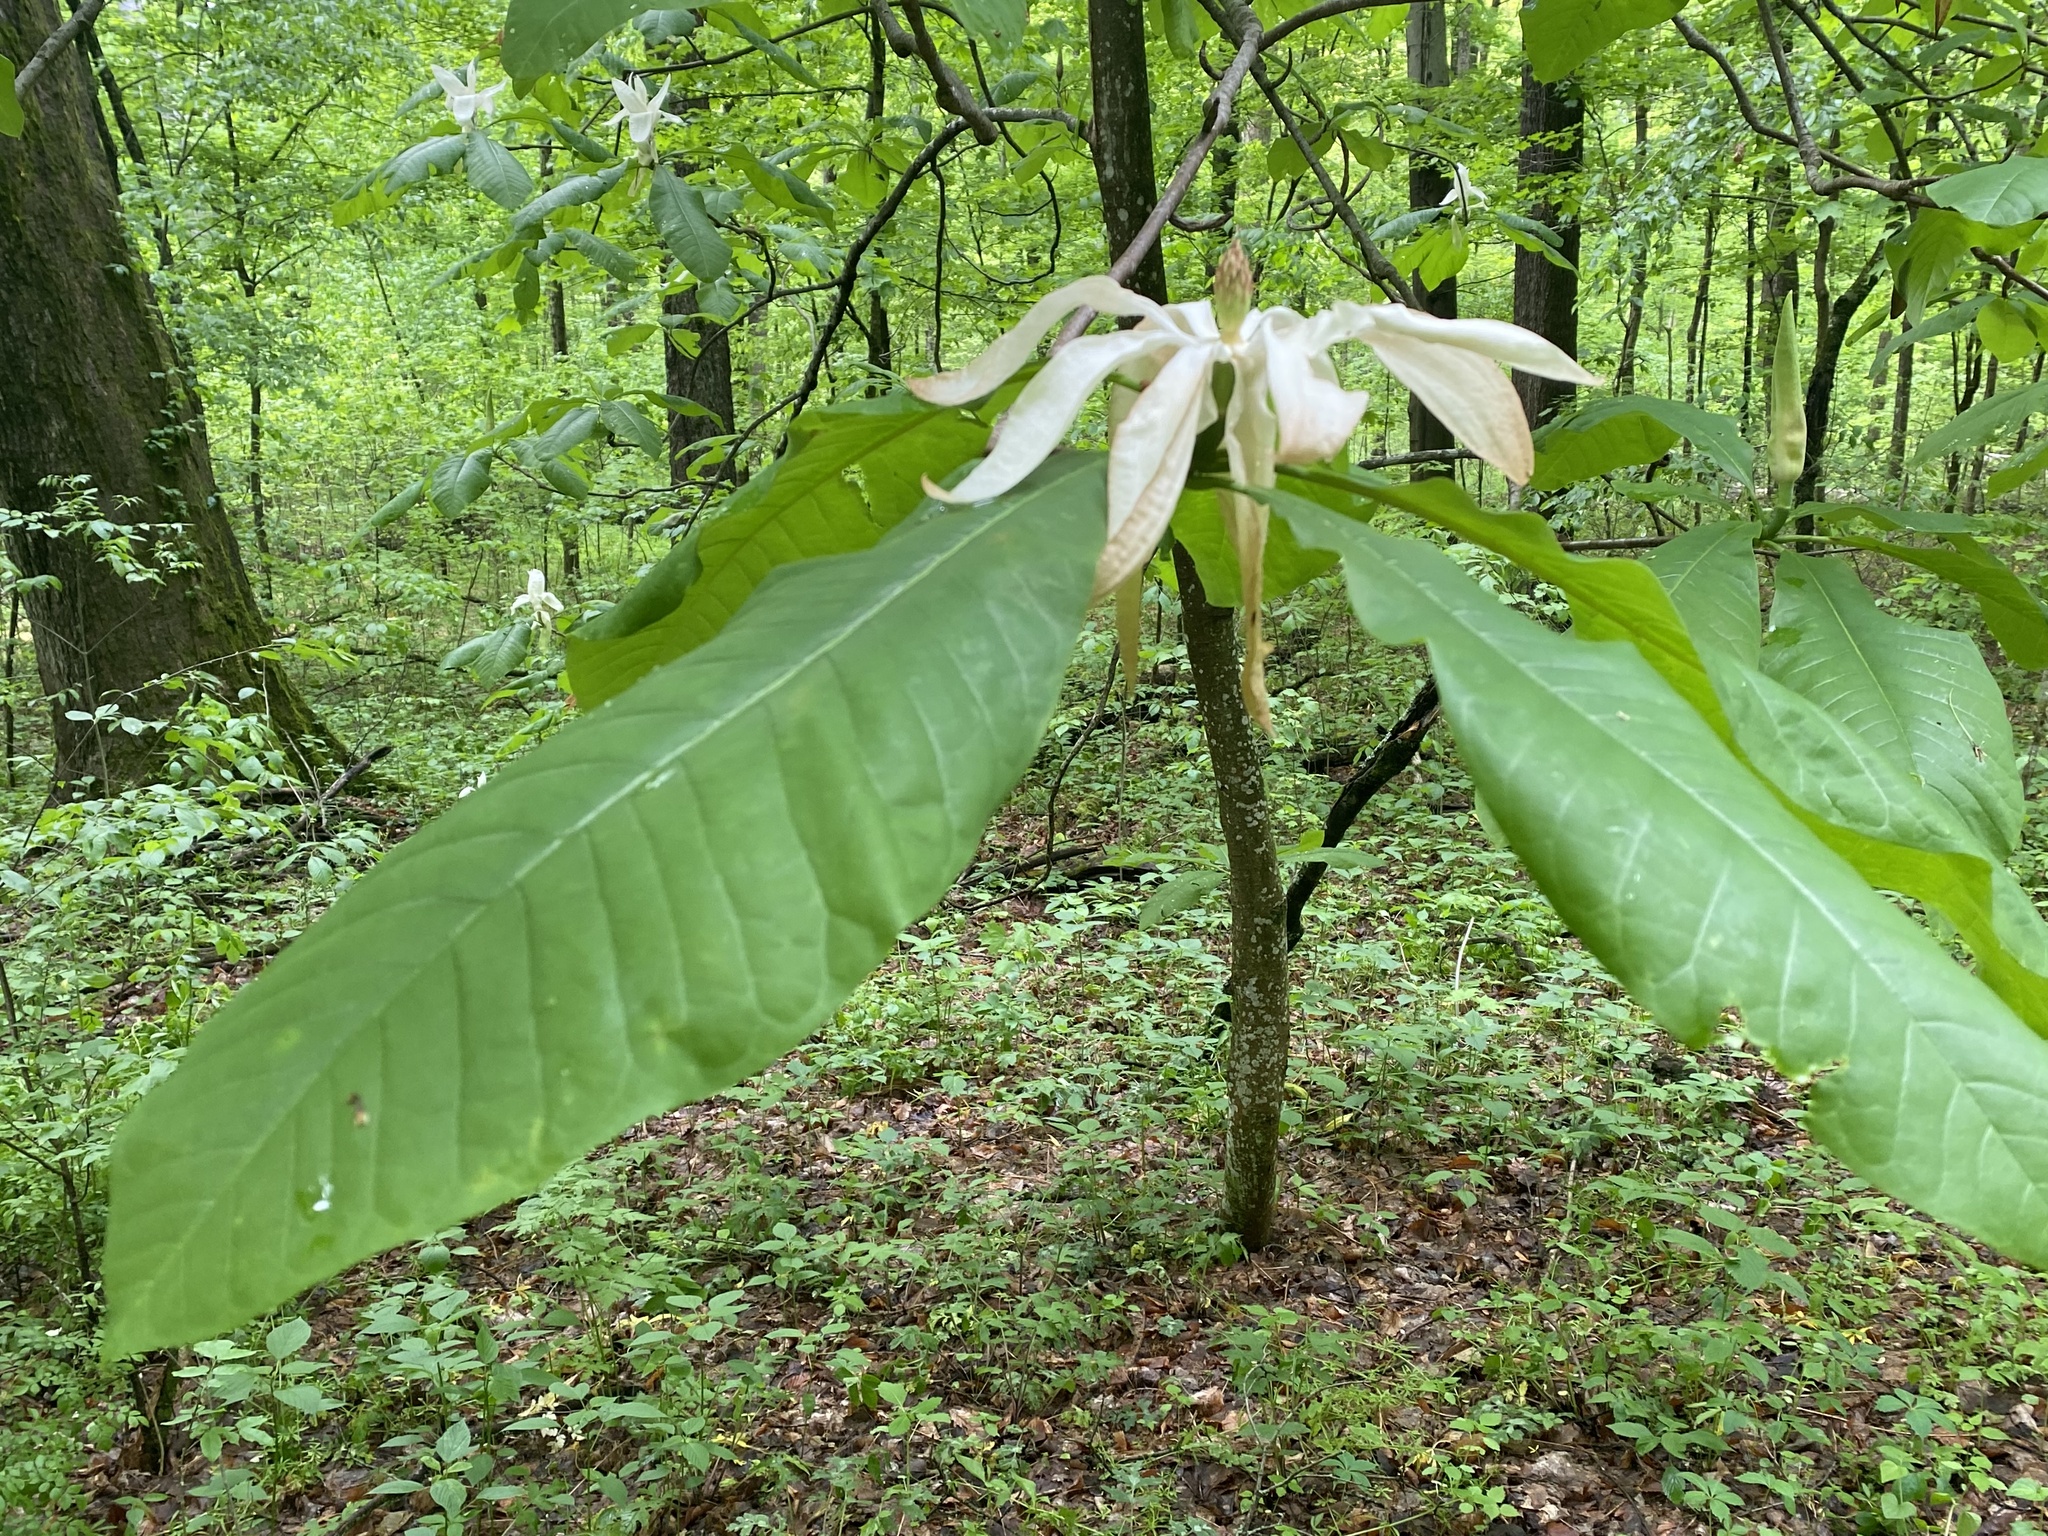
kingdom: Plantae
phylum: Tracheophyta
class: Magnoliopsida
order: Magnoliales
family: Magnoliaceae
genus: Magnolia
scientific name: Magnolia tripetala
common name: Umbrella magnolia
